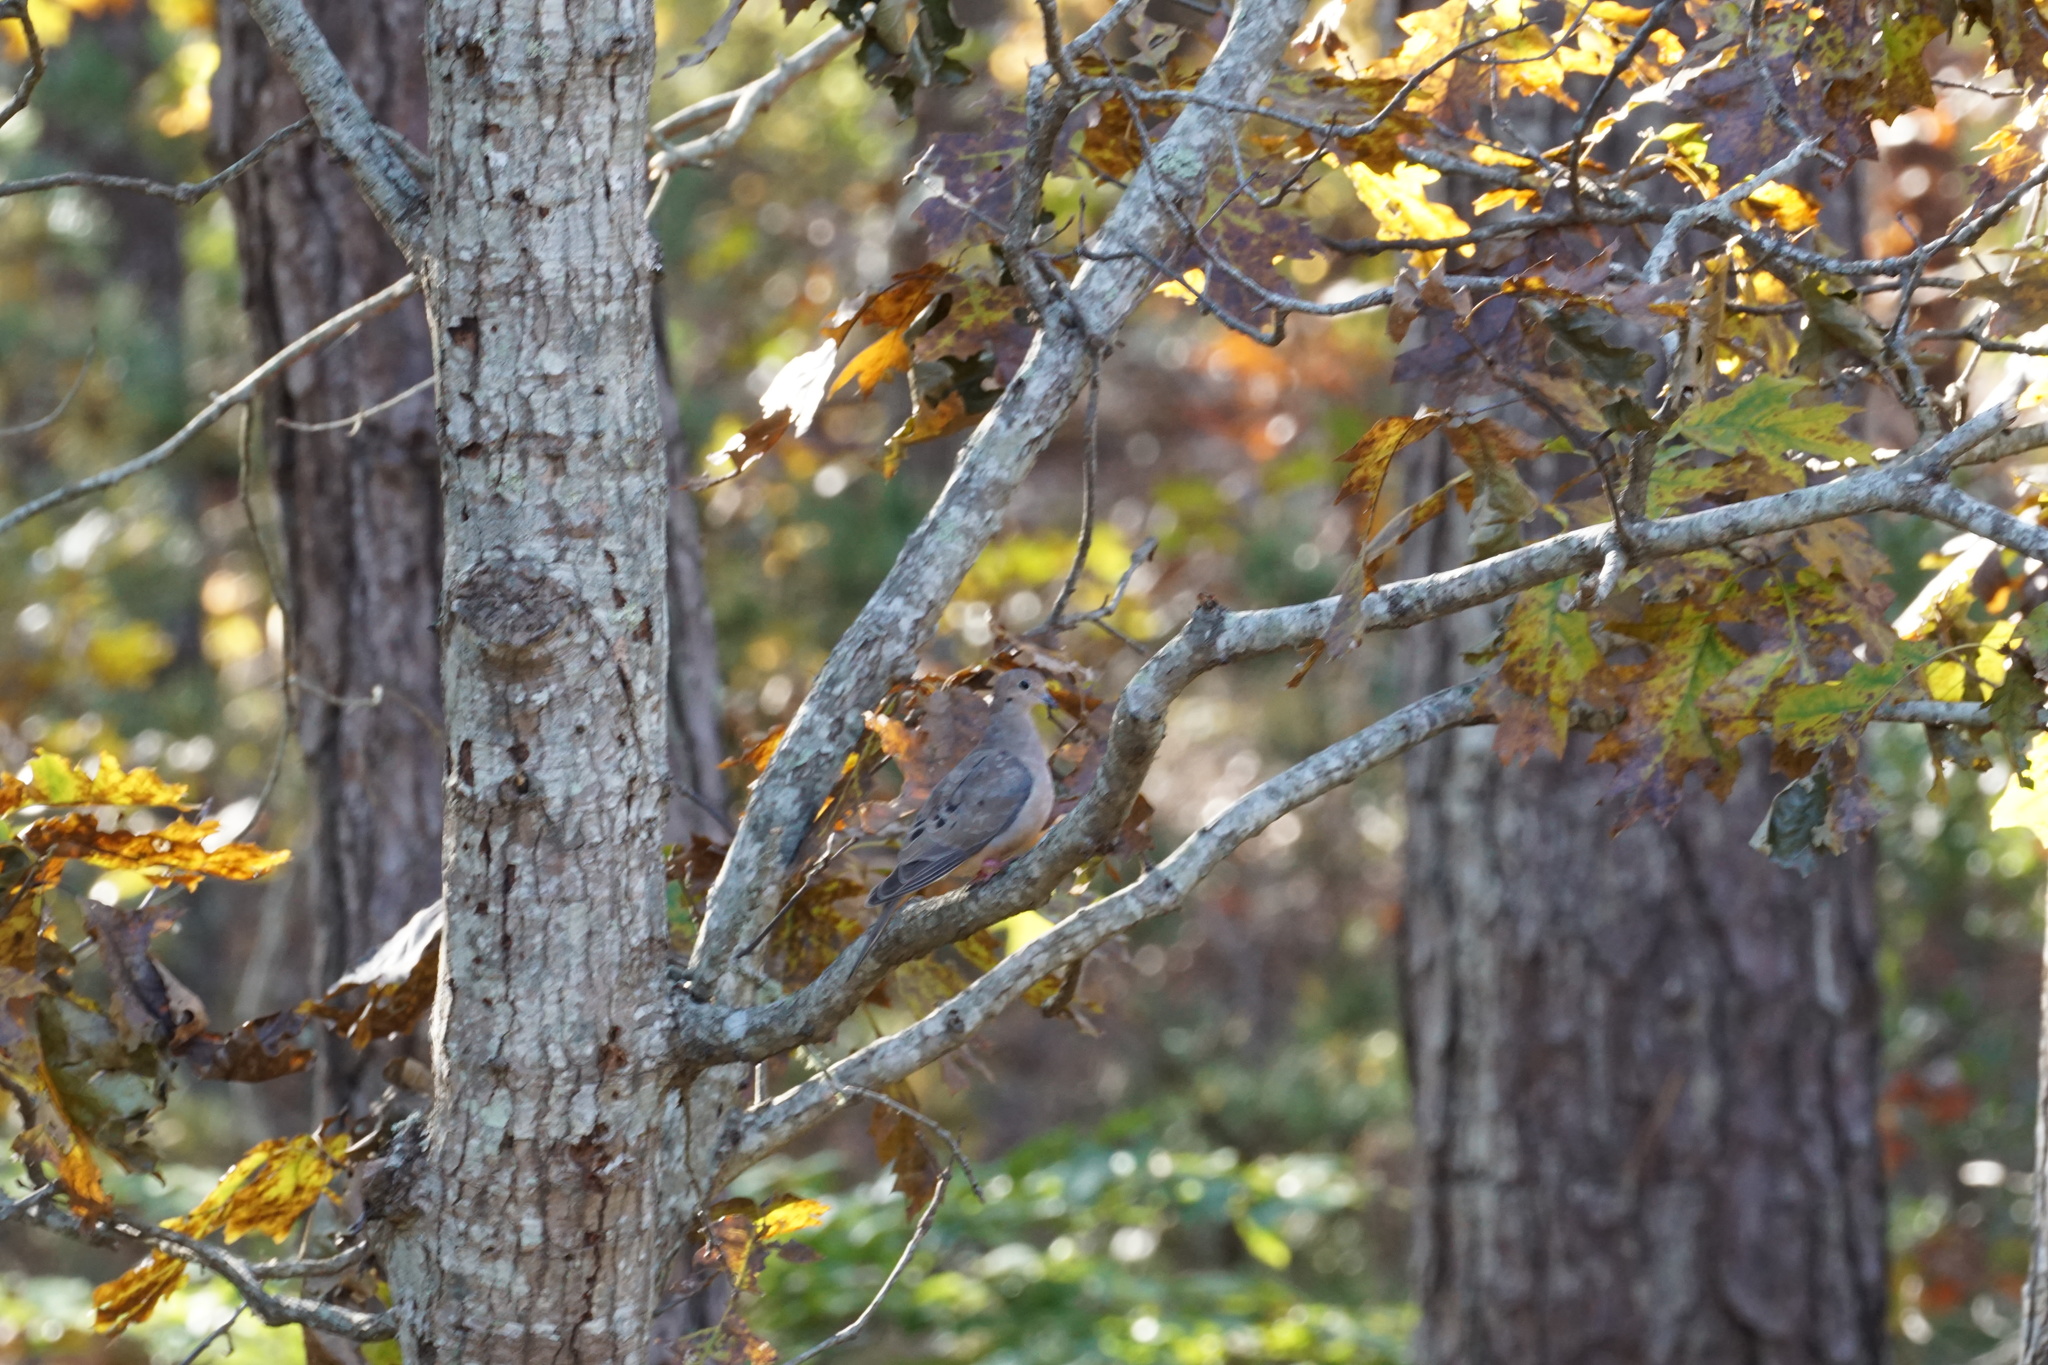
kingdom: Animalia
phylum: Chordata
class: Aves
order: Columbiformes
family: Columbidae
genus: Zenaida
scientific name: Zenaida macroura
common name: Mourning dove
